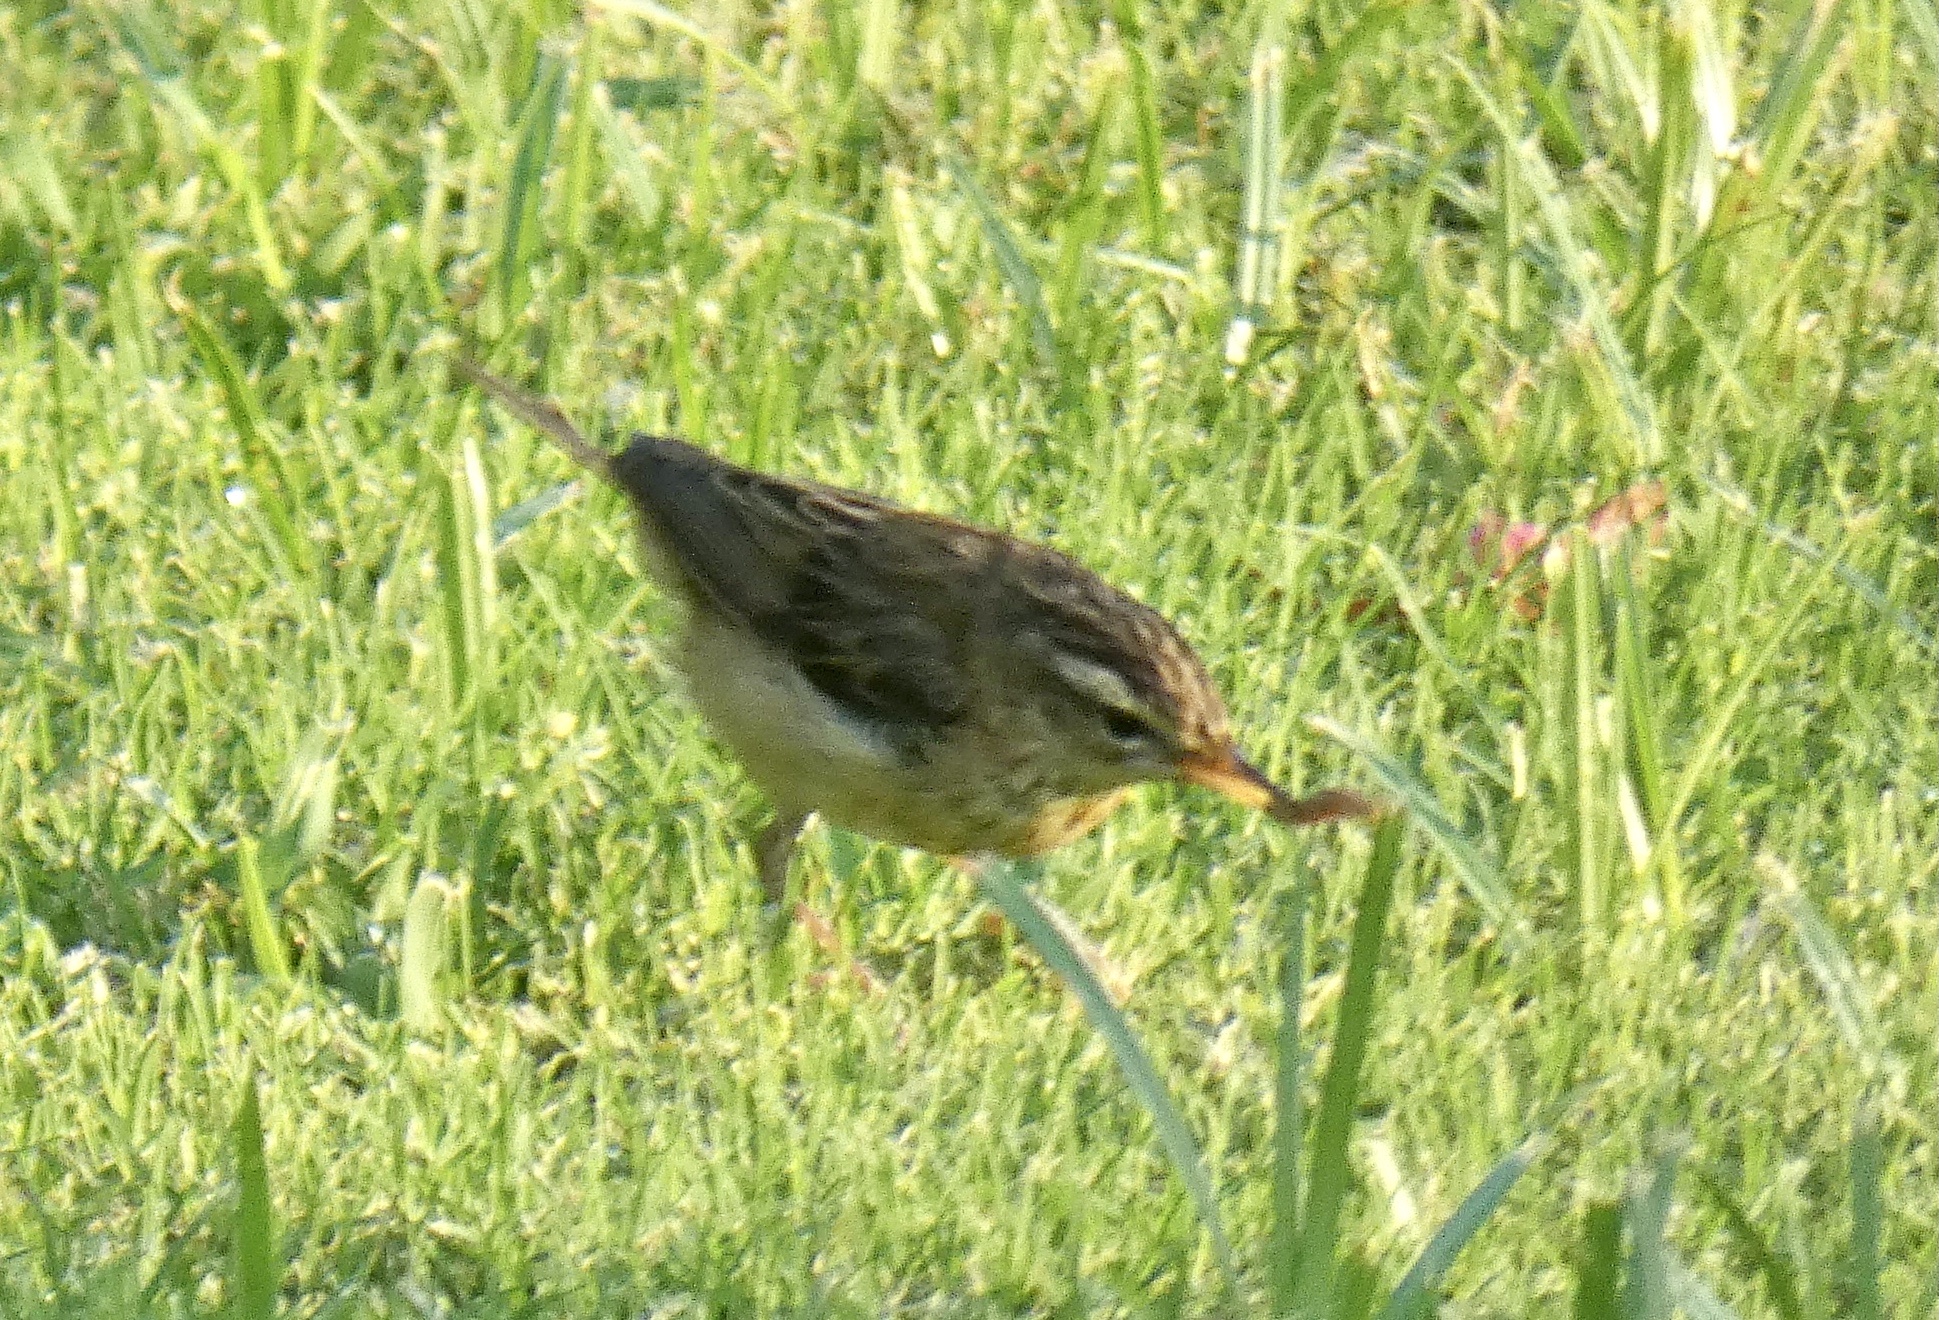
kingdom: Animalia
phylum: Chordata
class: Aves
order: Passeriformes
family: Acrocephalidae
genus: Acrocephalus
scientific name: Acrocephalus schoenobaenus
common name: Sedge warbler
